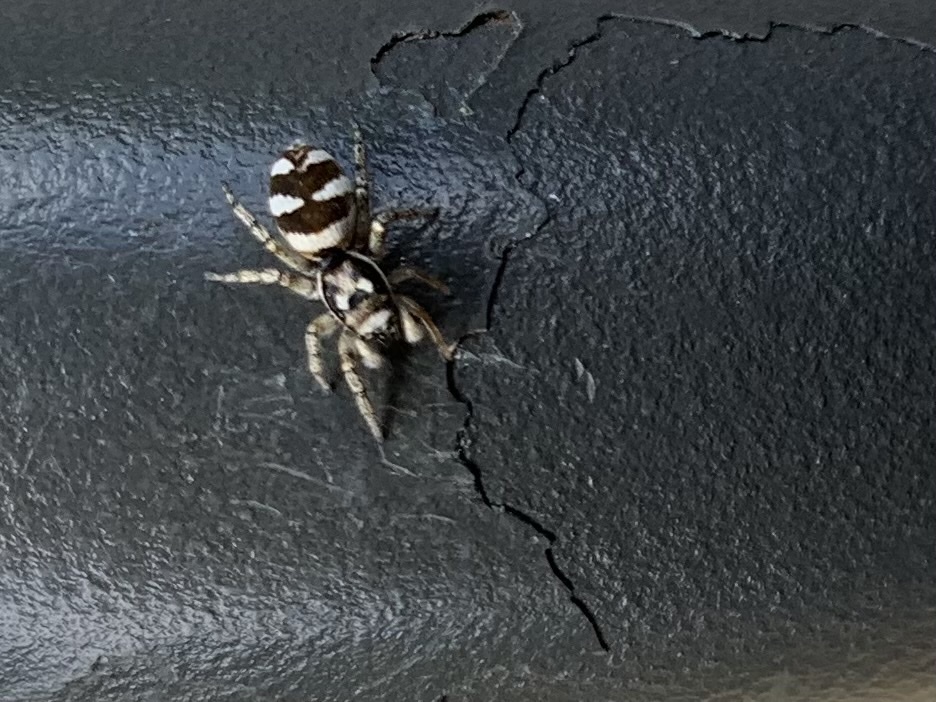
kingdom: Animalia
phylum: Arthropoda
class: Arachnida
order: Araneae
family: Salticidae
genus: Salticus
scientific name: Salticus scenicus
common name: Zebra jumper
